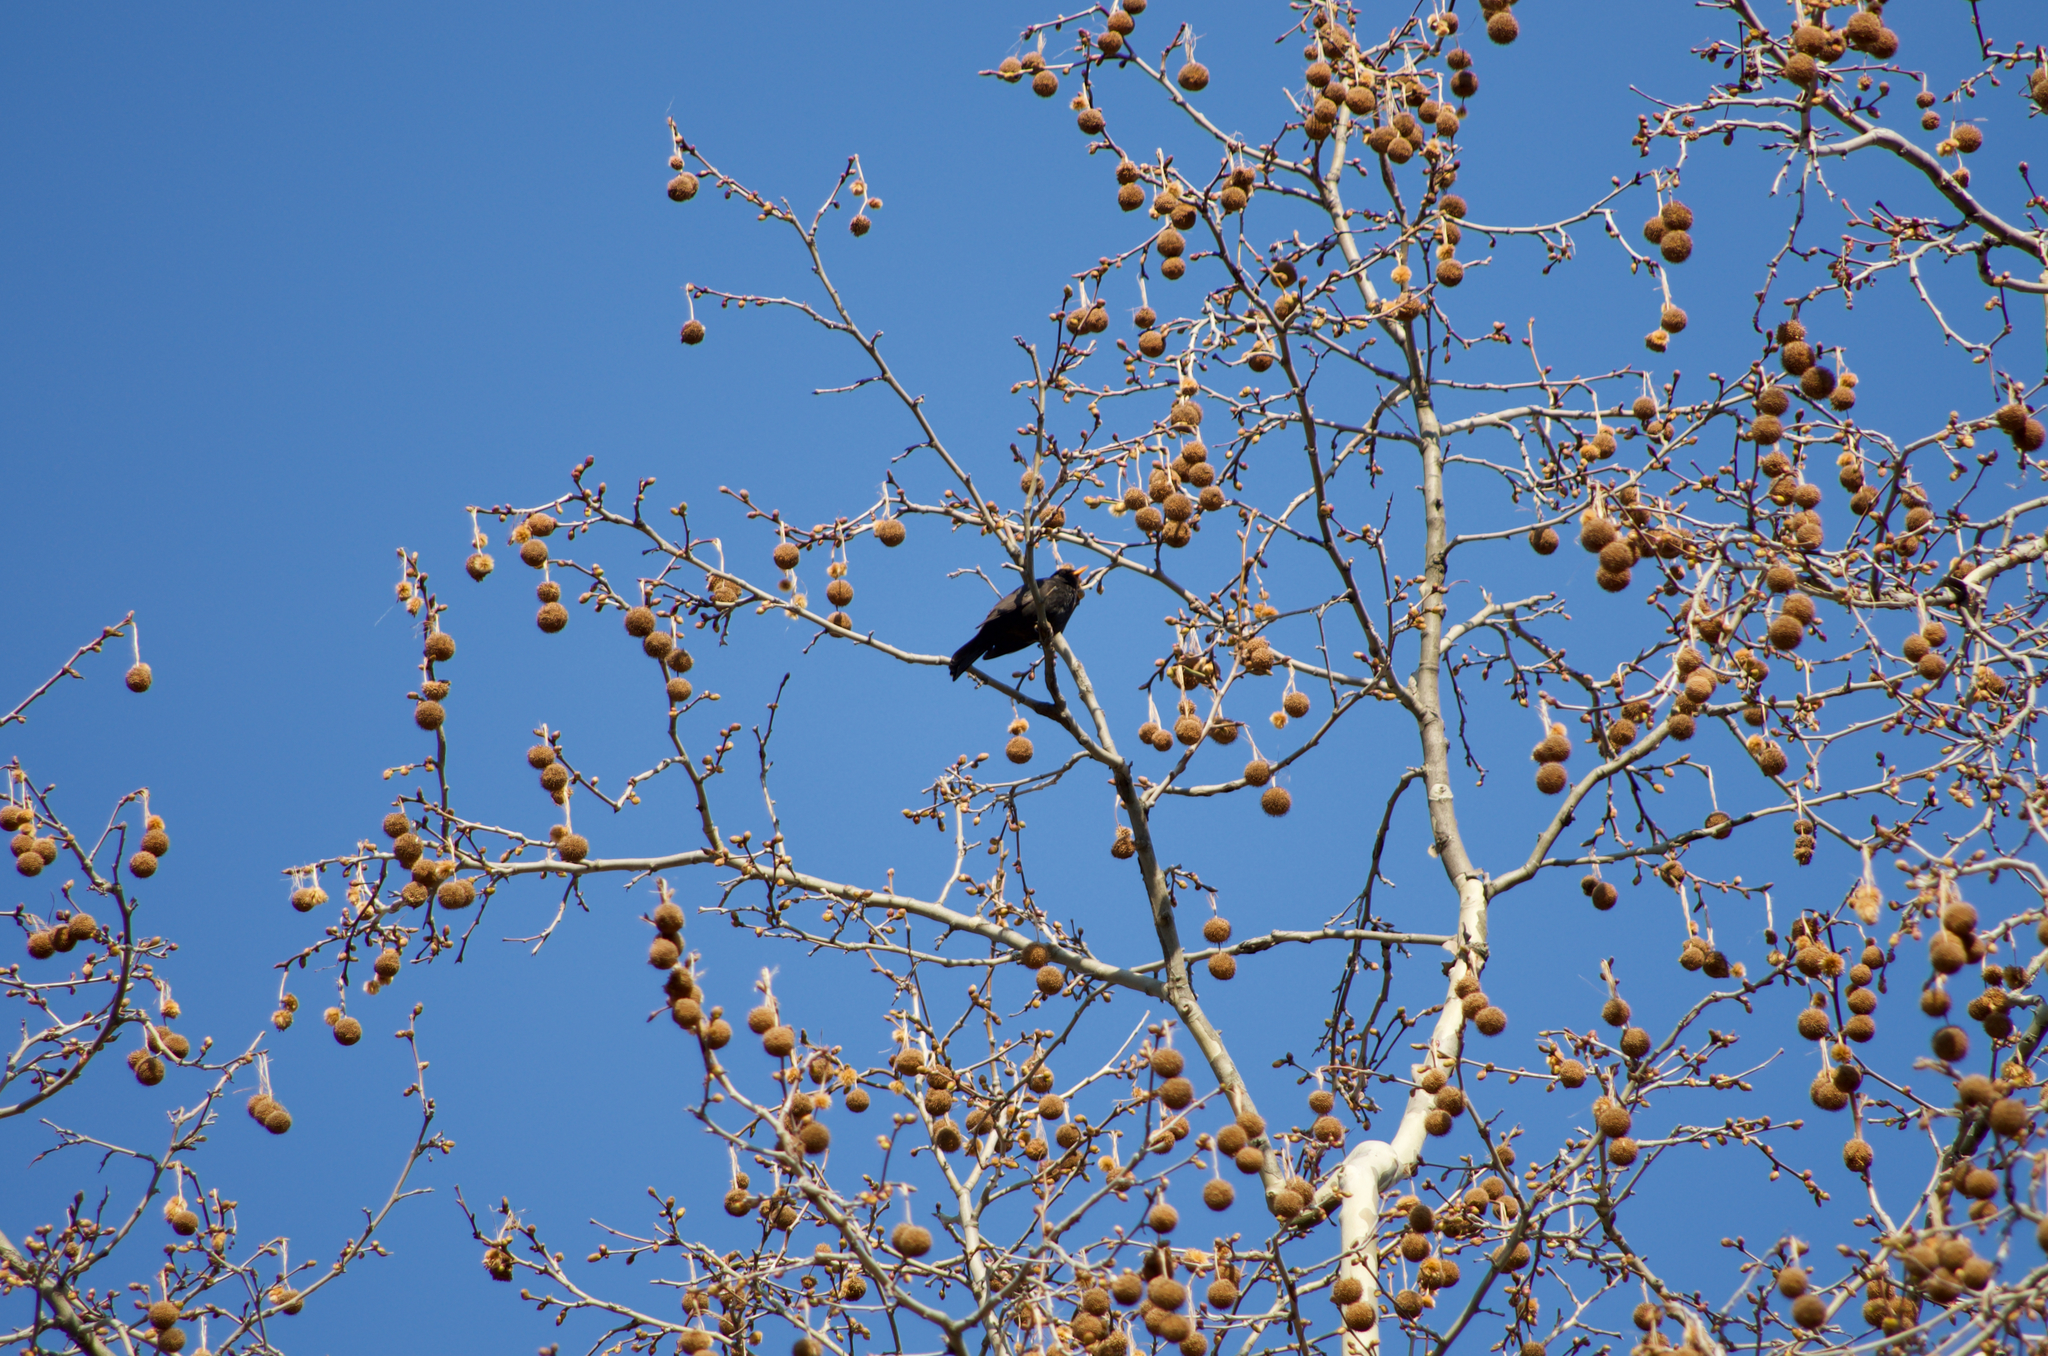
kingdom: Animalia
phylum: Chordata
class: Aves
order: Passeriformes
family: Turdidae
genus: Turdus
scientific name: Turdus merula
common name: Common blackbird
